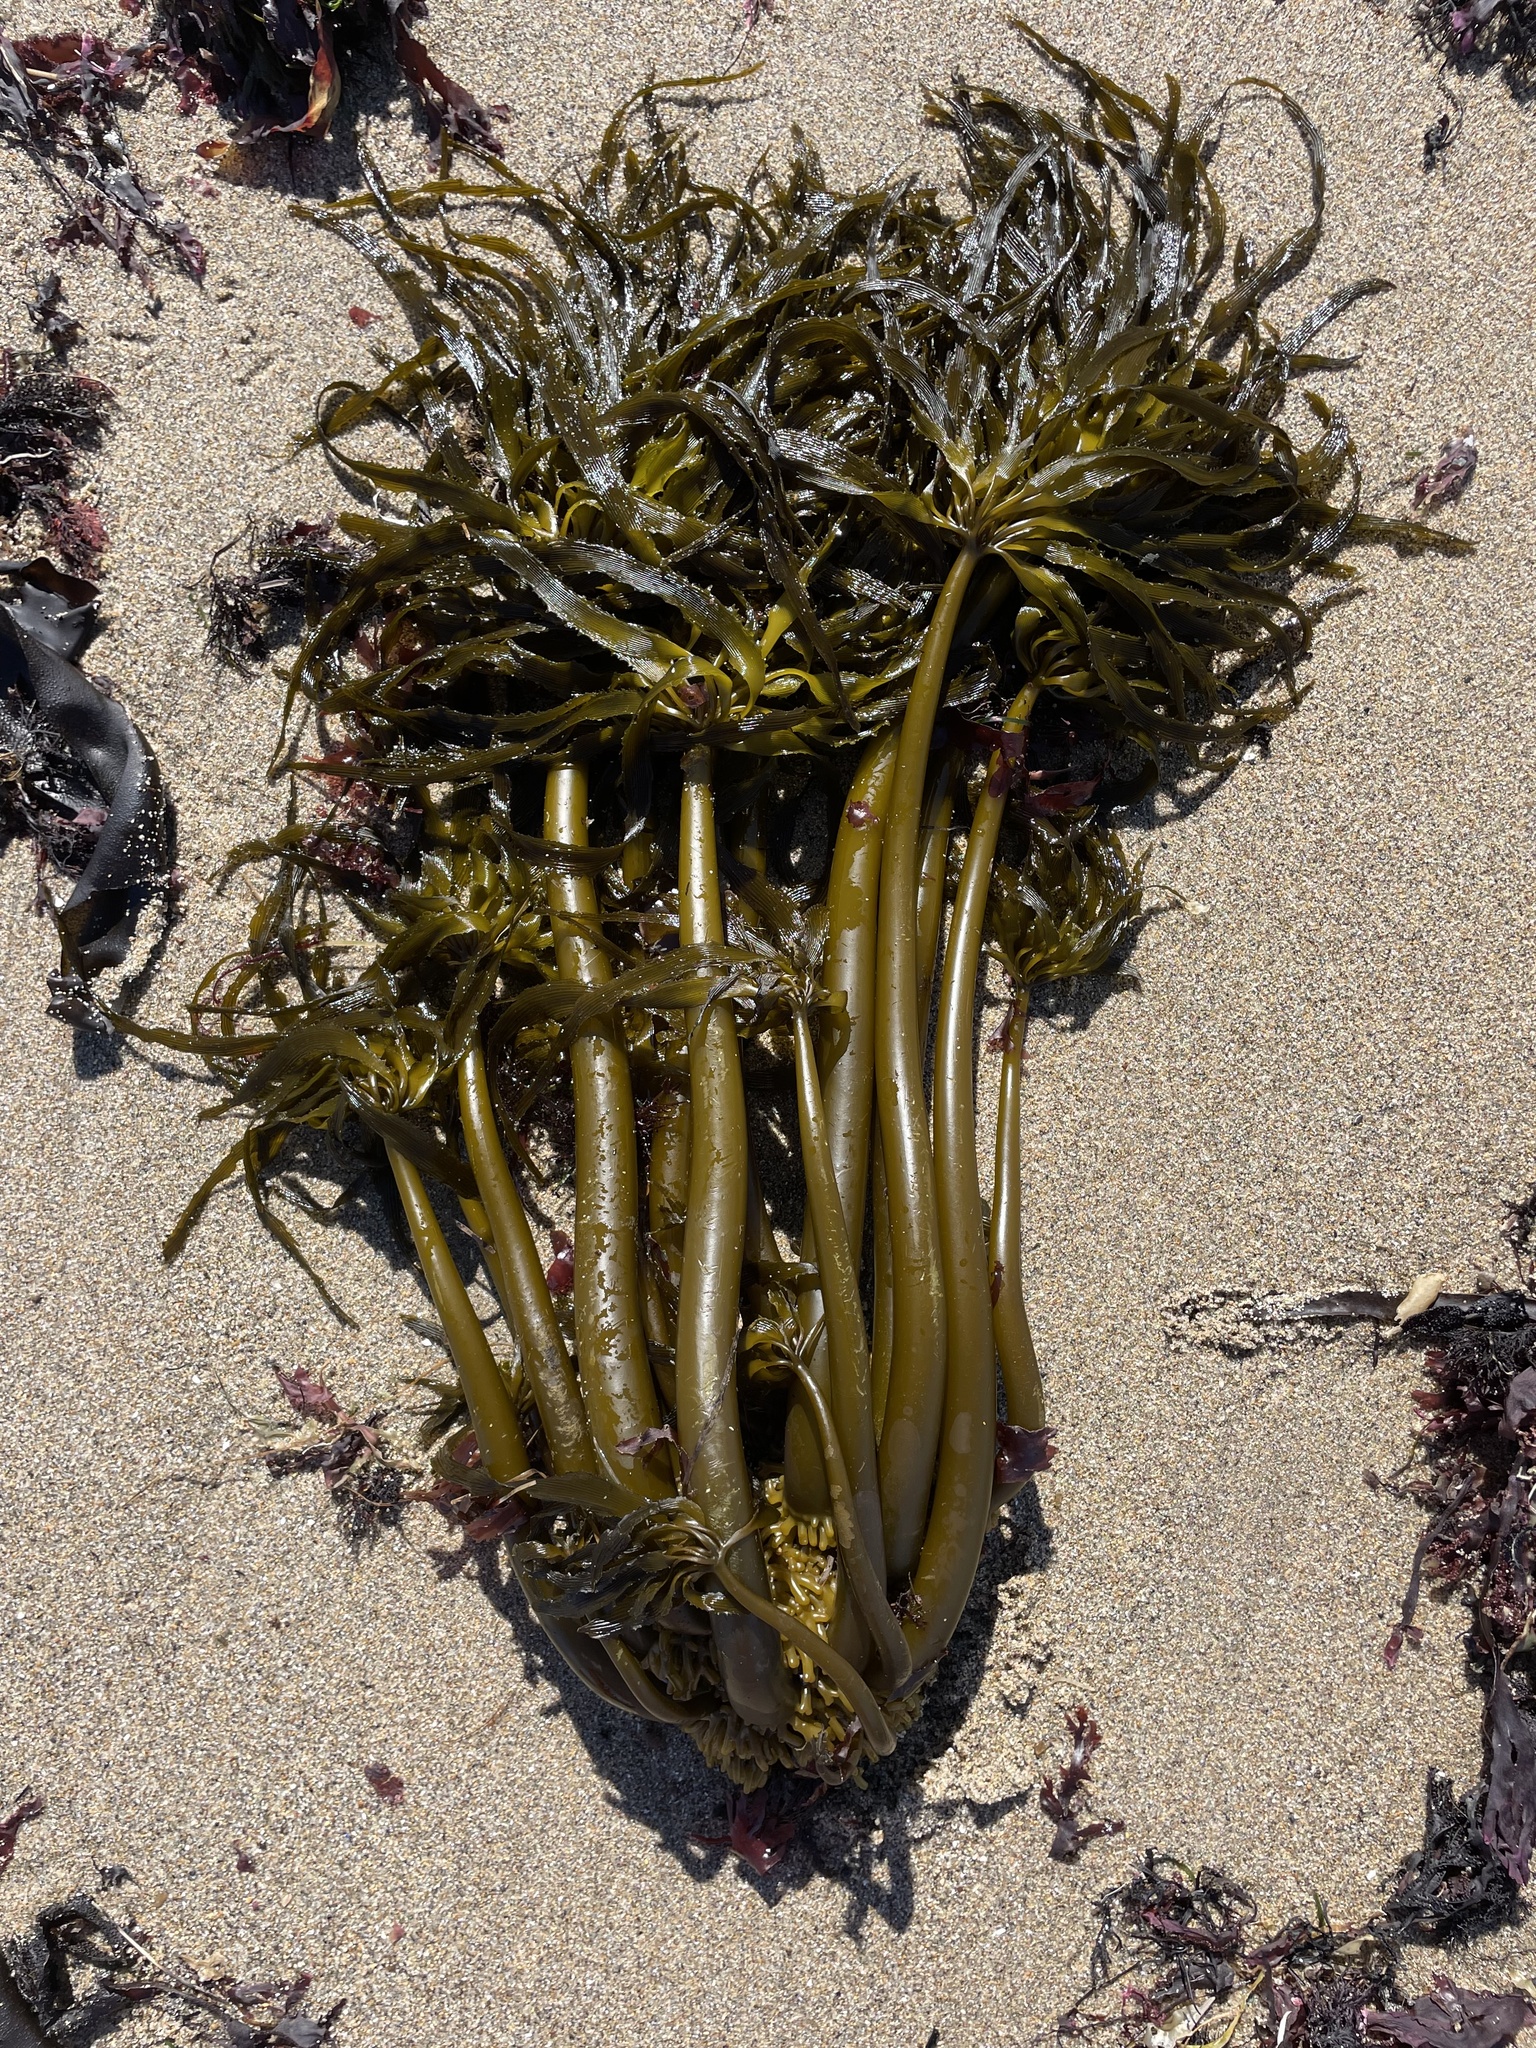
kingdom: Chromista
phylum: Ochrophyta
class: Phaeophyceae
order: Laminariales
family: Laminariaceae
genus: Postelsia
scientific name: Postelsia palmiformis
